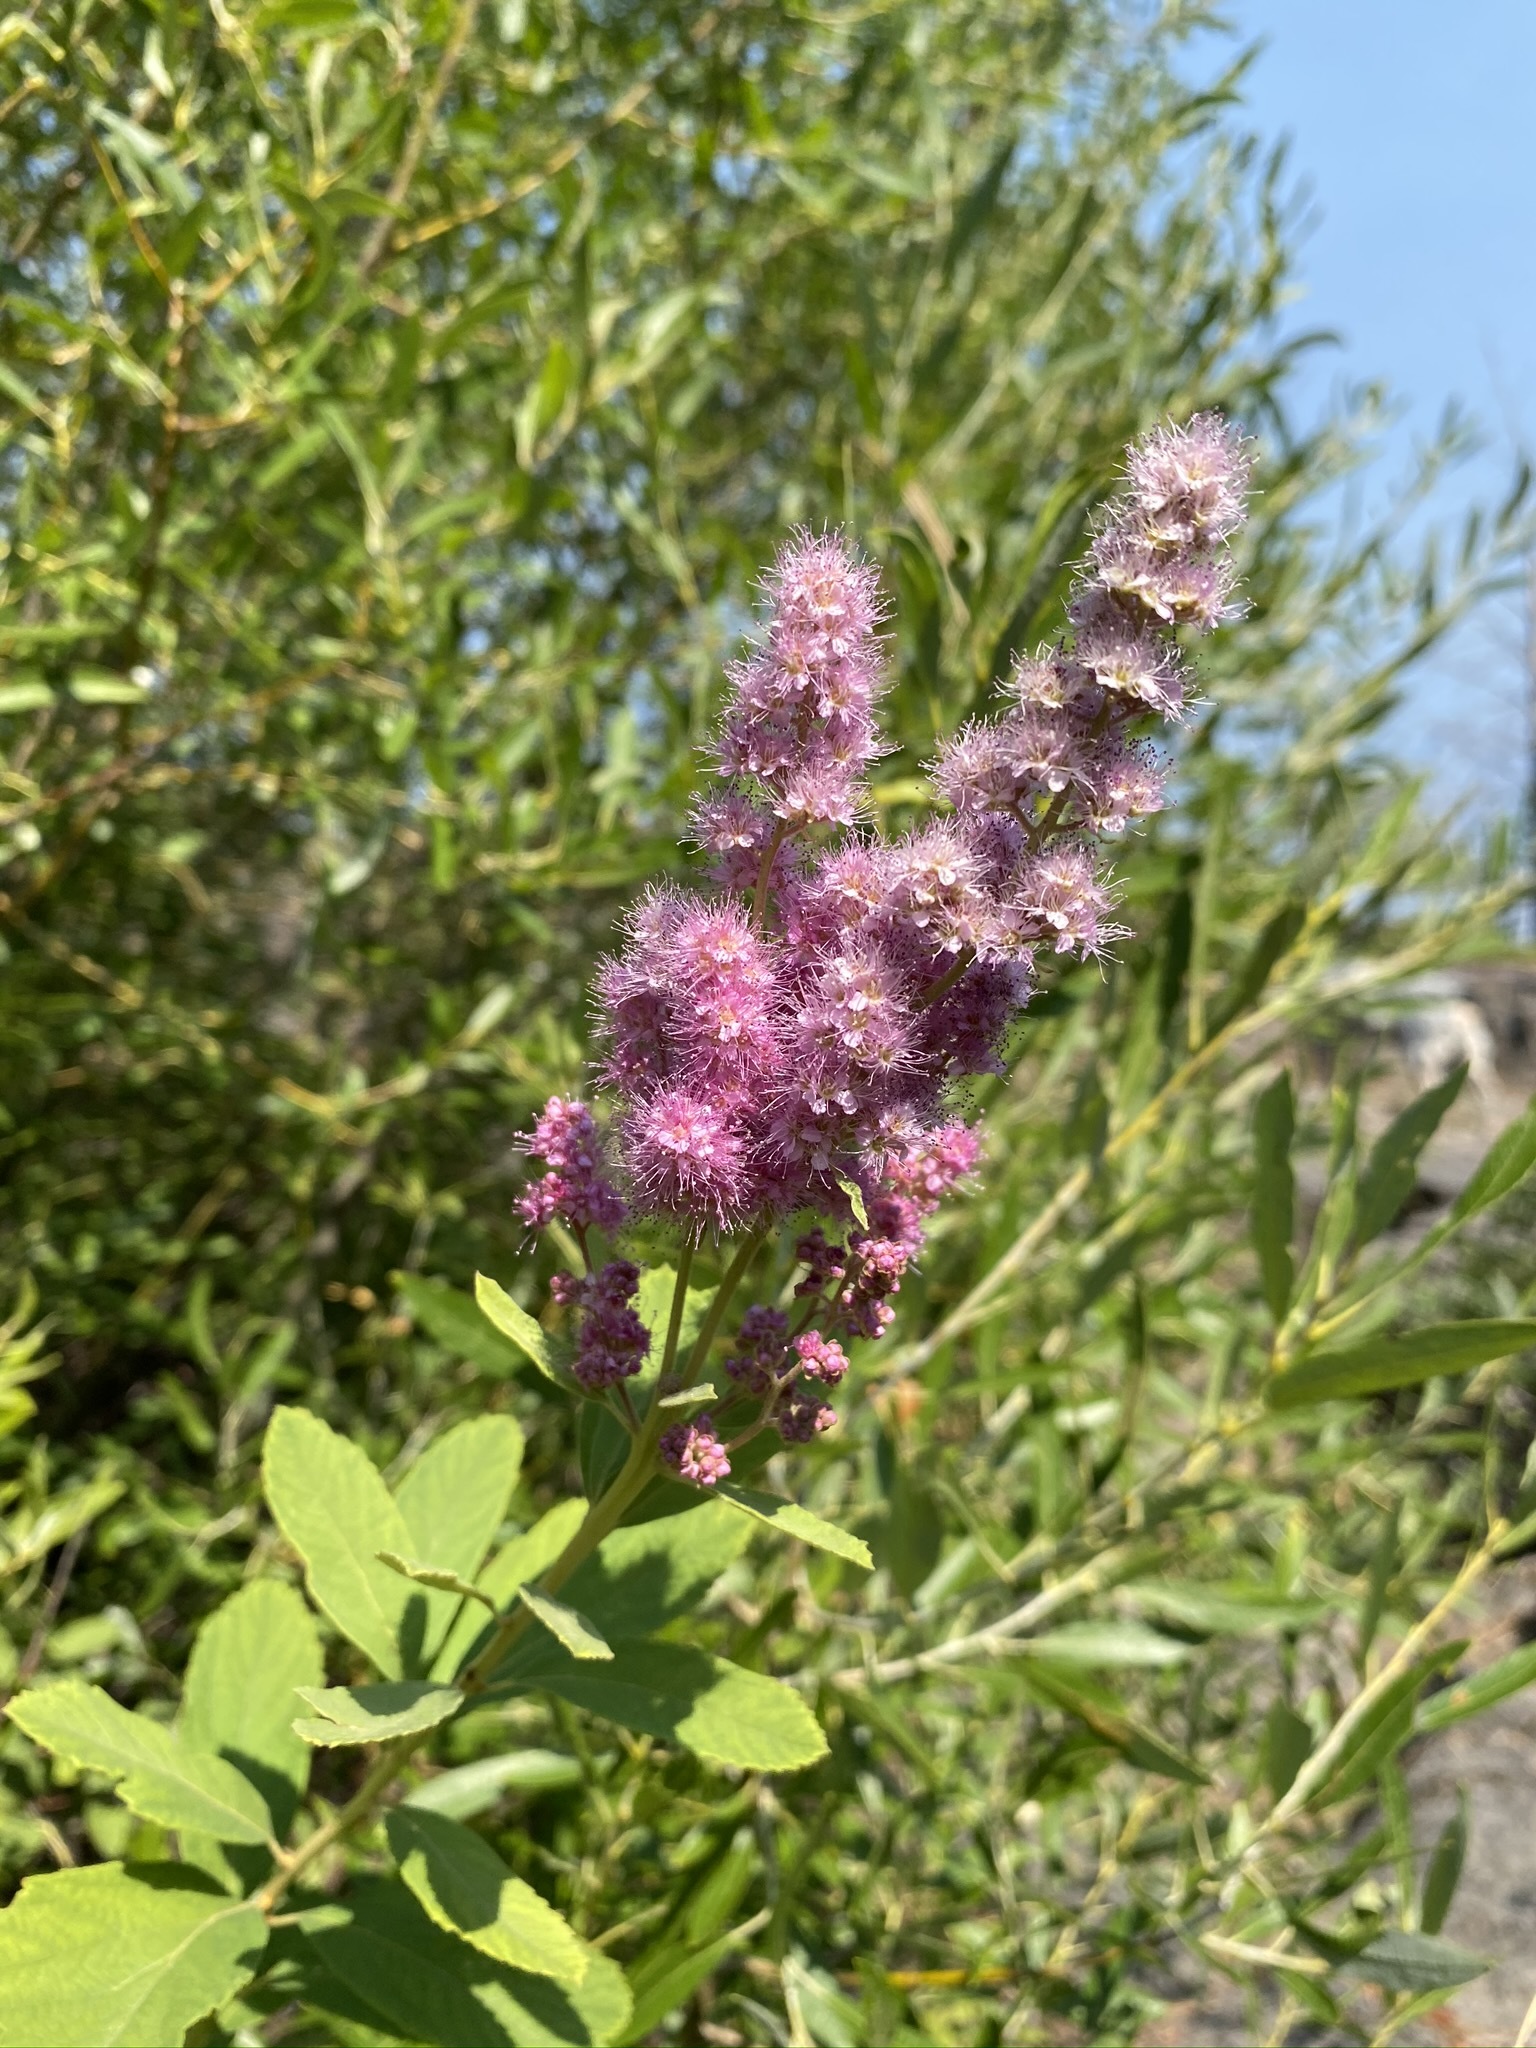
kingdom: Plantae
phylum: Tracheophyta
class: Magnoliopsida
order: Rosales
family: Rosaceae
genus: Spiraea
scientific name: Spiraea douglasii
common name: Steeplebush
